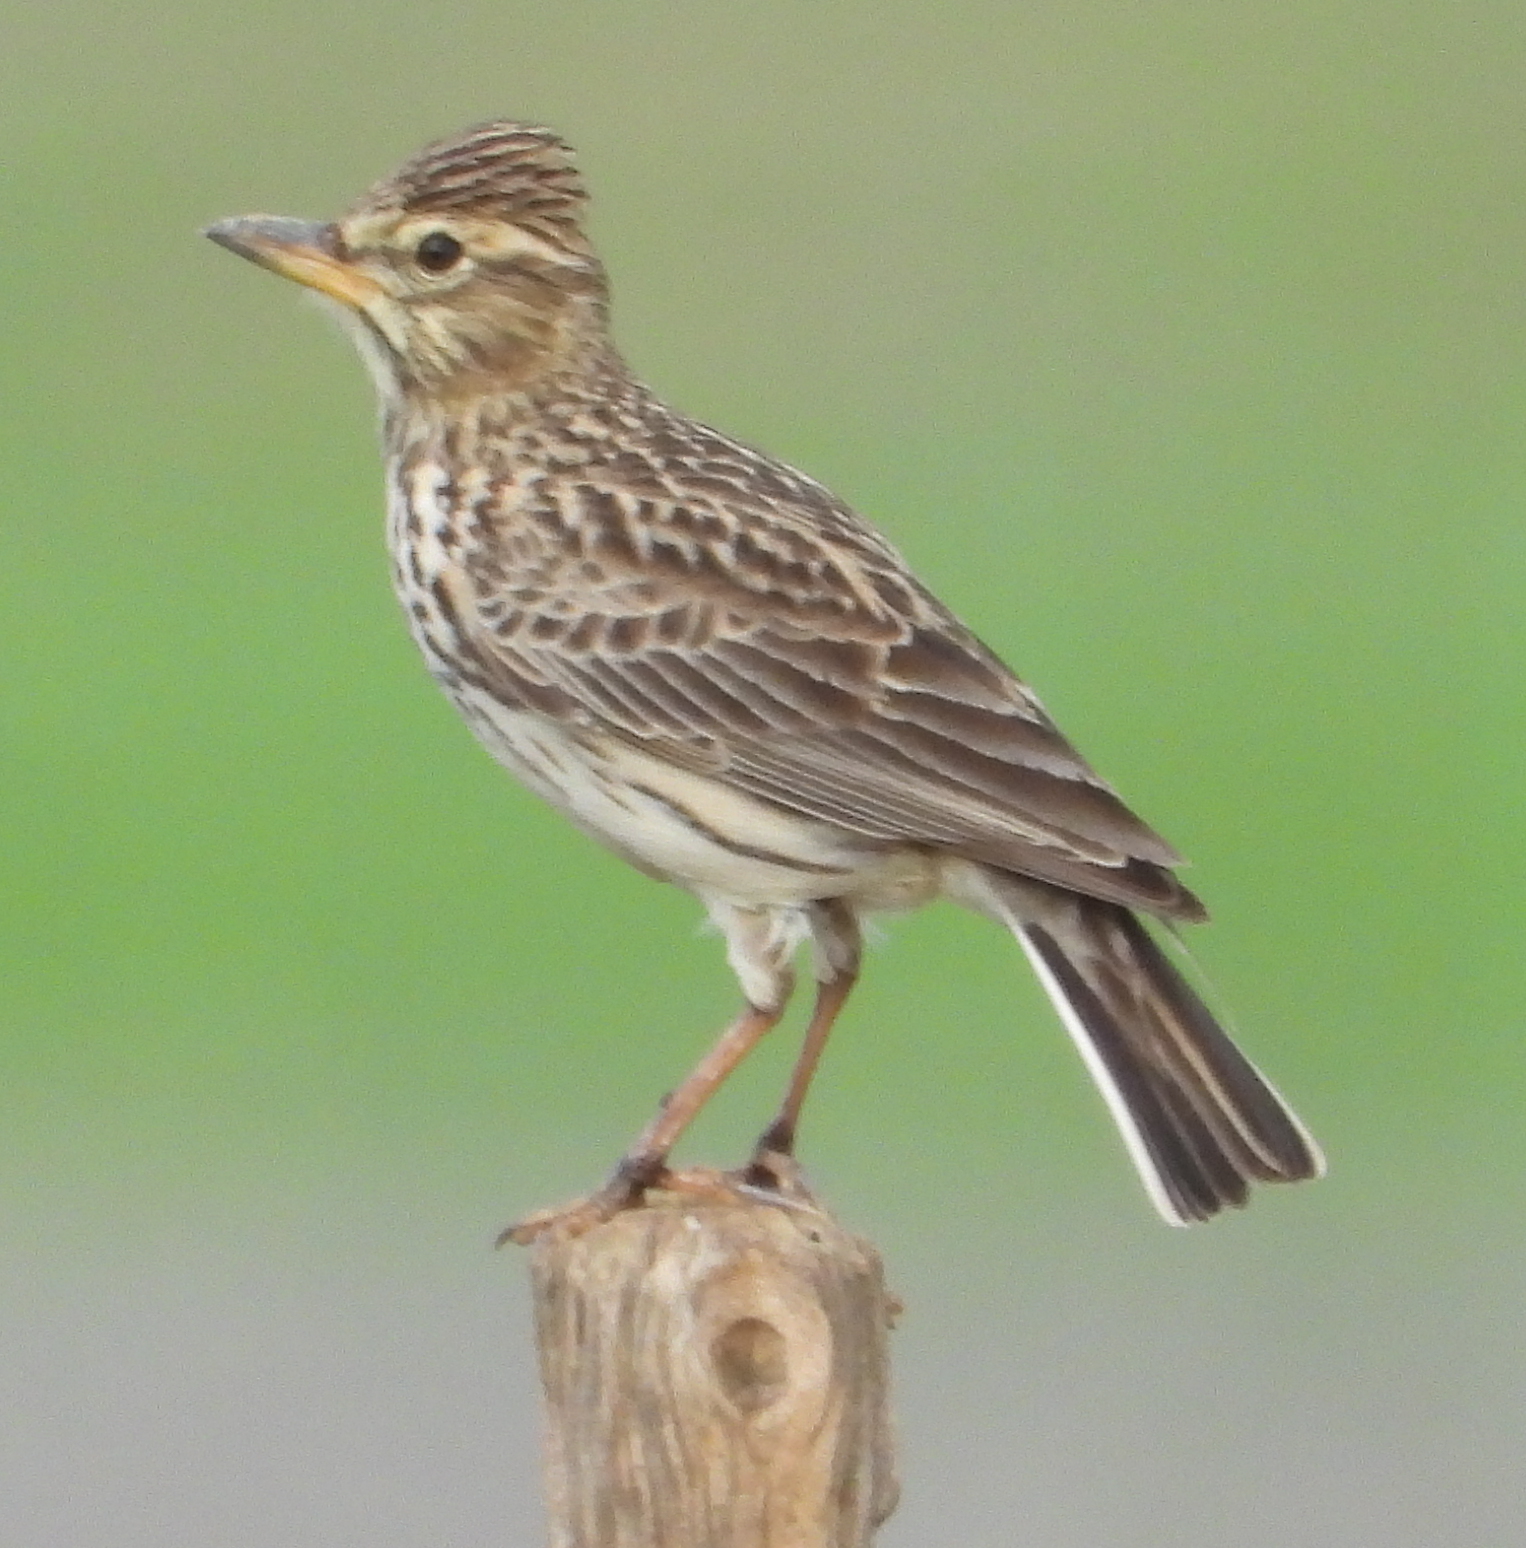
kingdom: Animalia
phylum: Chordata
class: Aves
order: Passeriformes
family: Alaudidae
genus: Galerida
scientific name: Galerida magnirostris
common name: Large-billed lark
